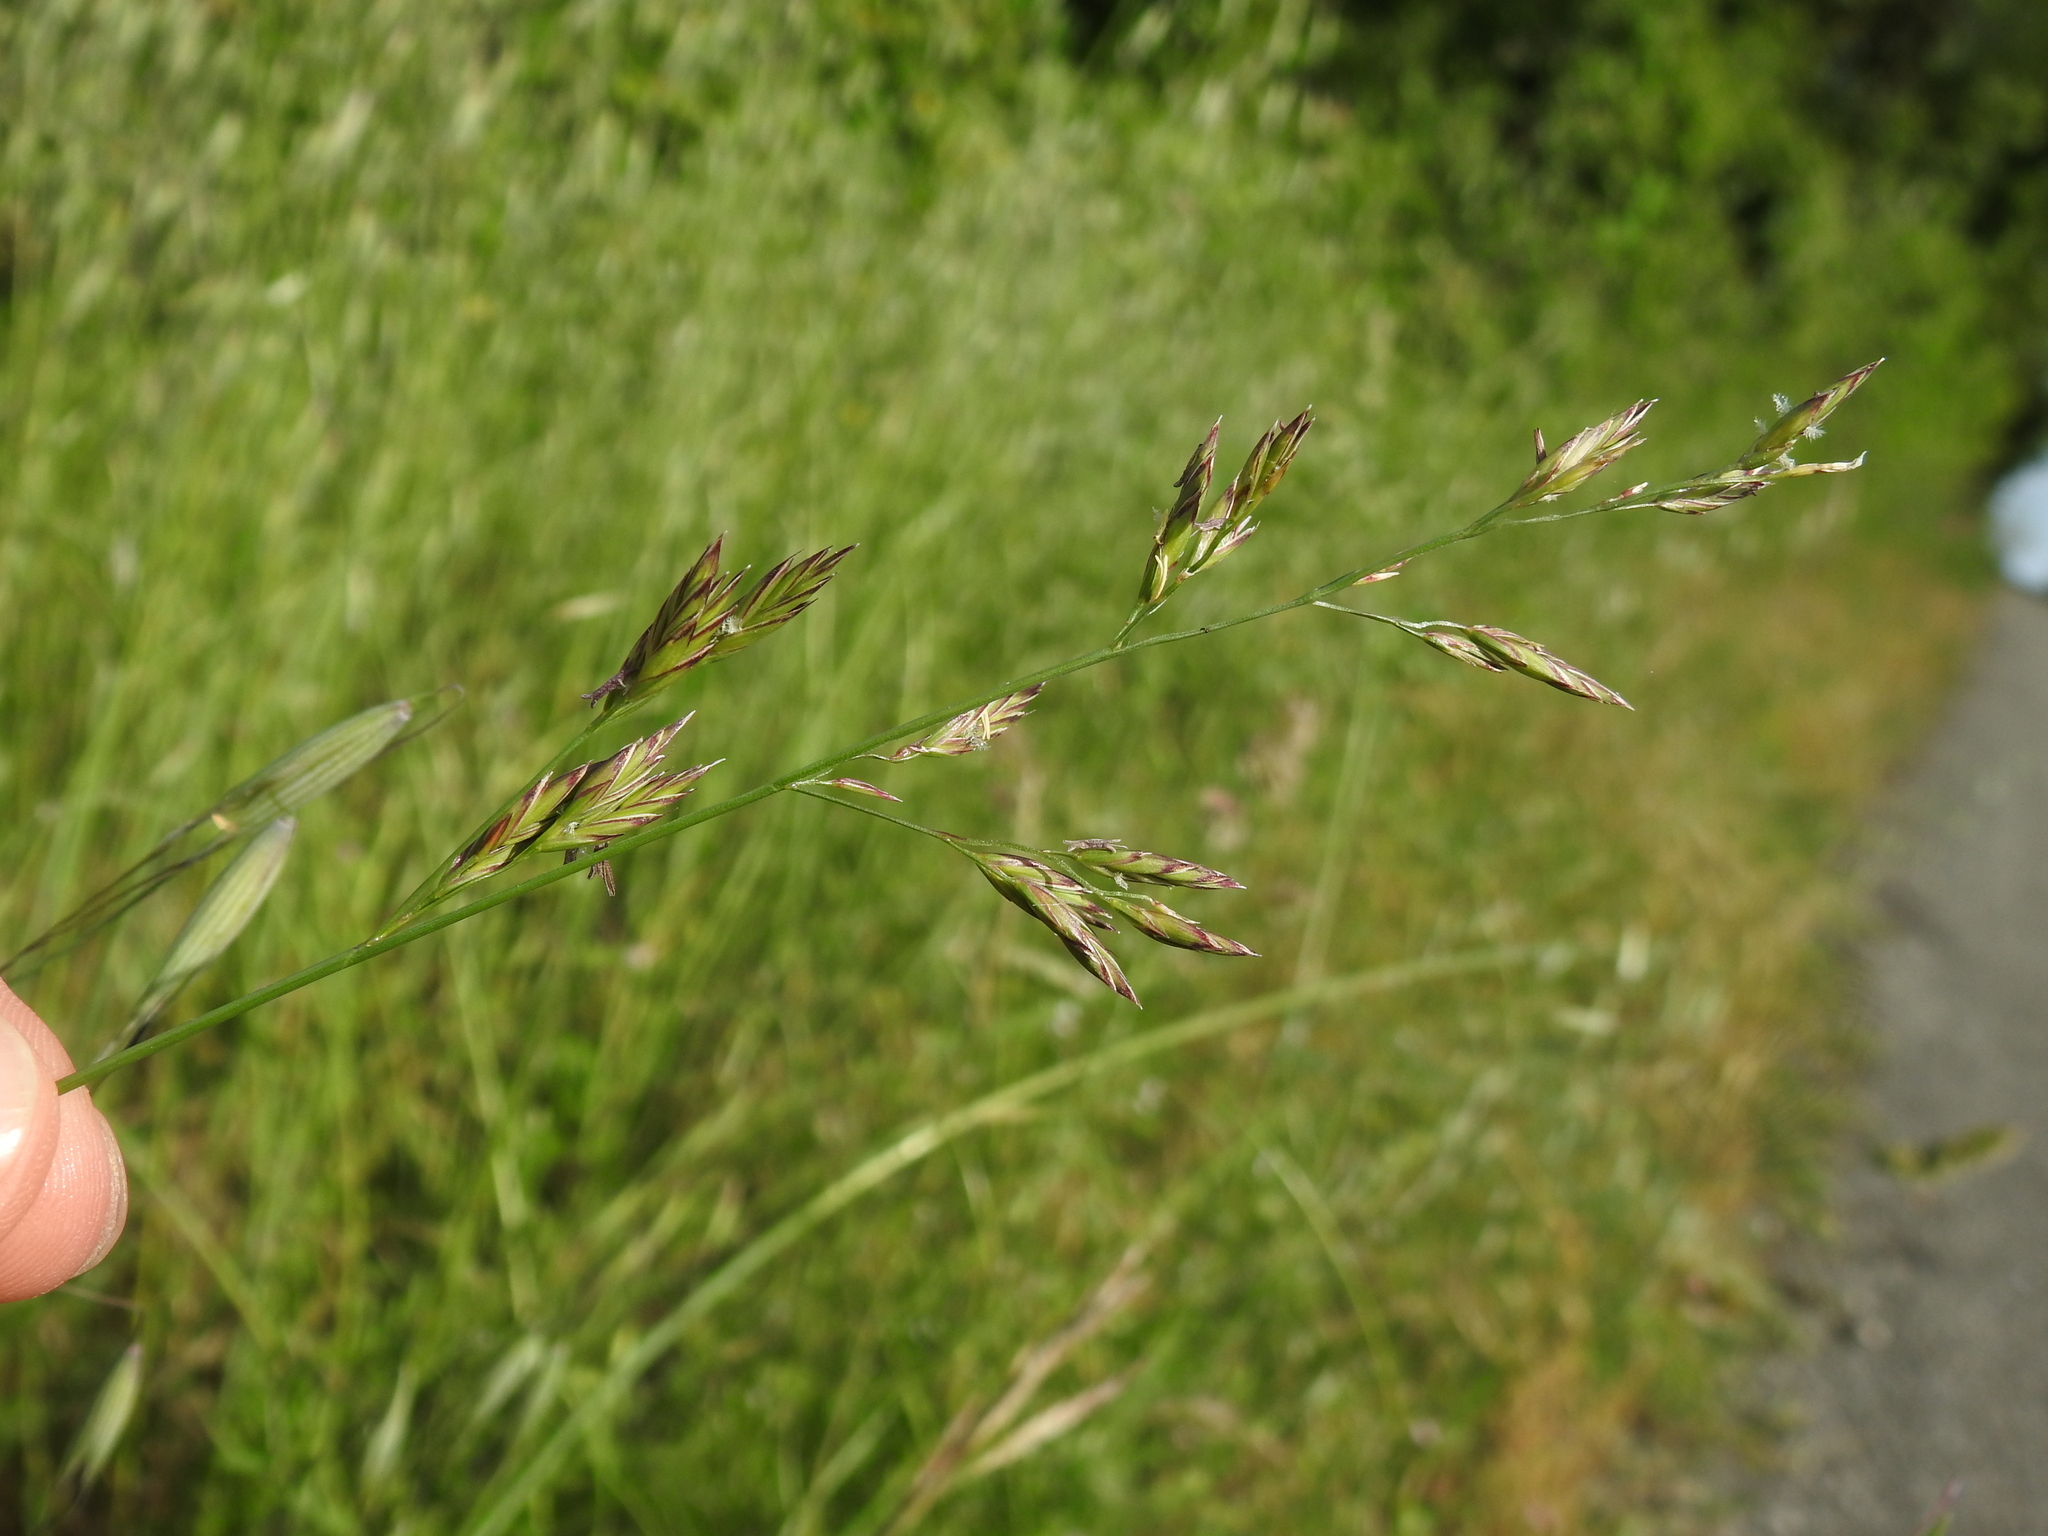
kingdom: Plantae
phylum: Tracheophyta
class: Liliopsida
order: Poales
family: Poaceae
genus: Lolium
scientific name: Lolium pratense
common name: Dover grass
